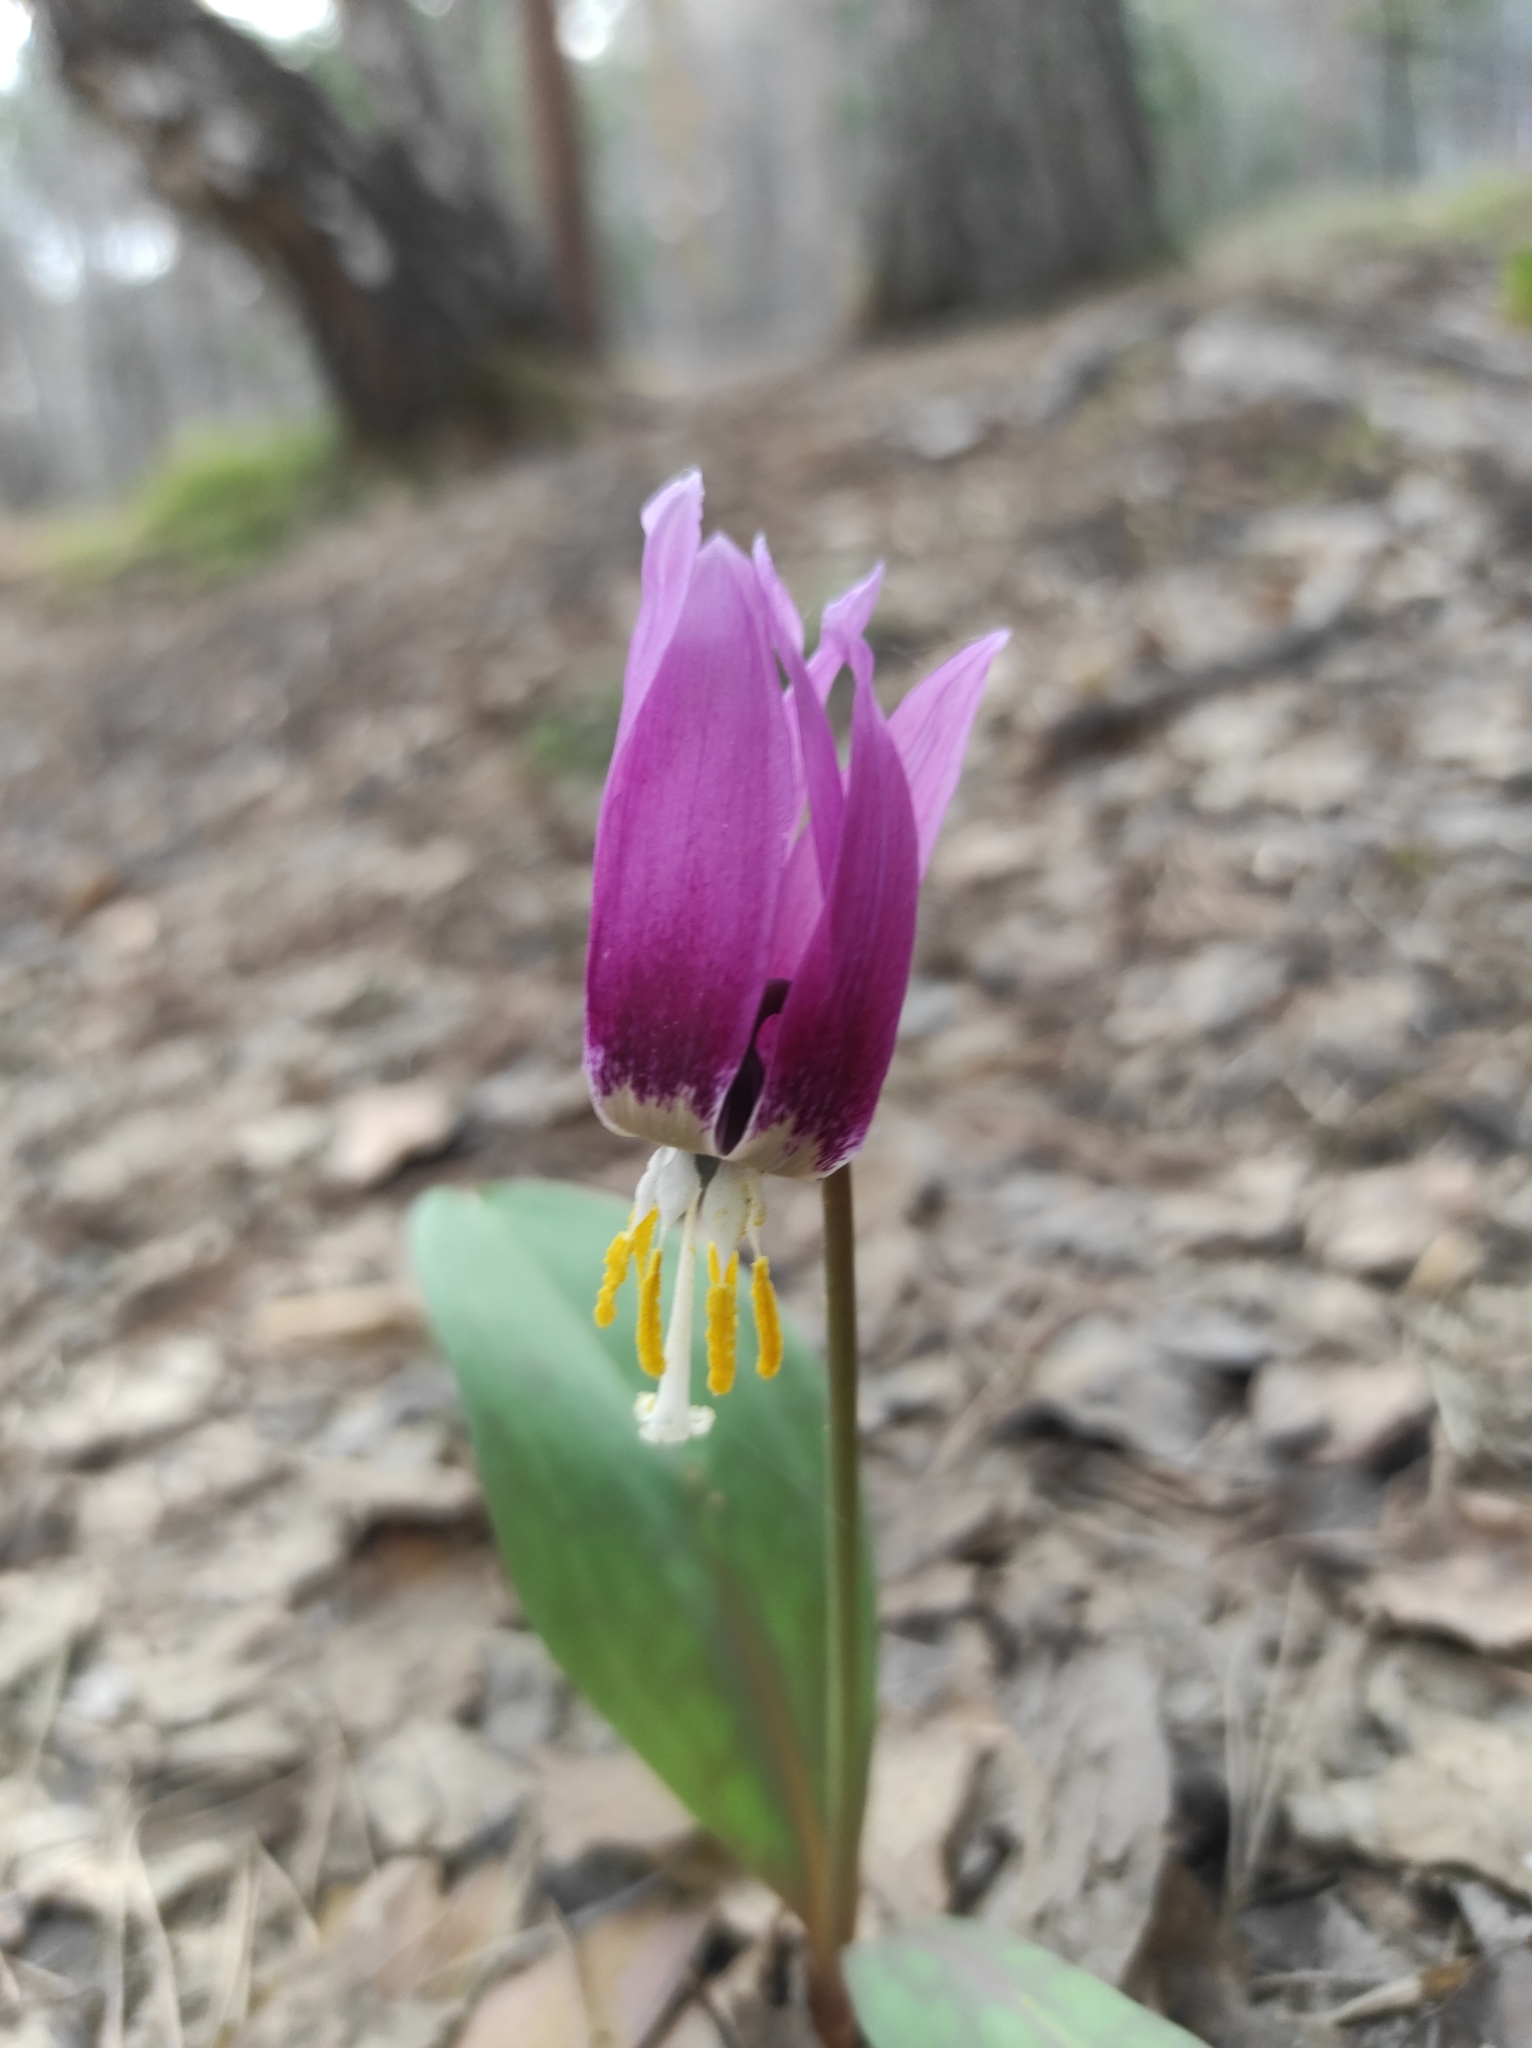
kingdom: Plantae
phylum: Tracheophyta
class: Liliopsida
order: Liliales
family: Liliaceae
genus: Erythronium
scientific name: Erythronium sibiricum
